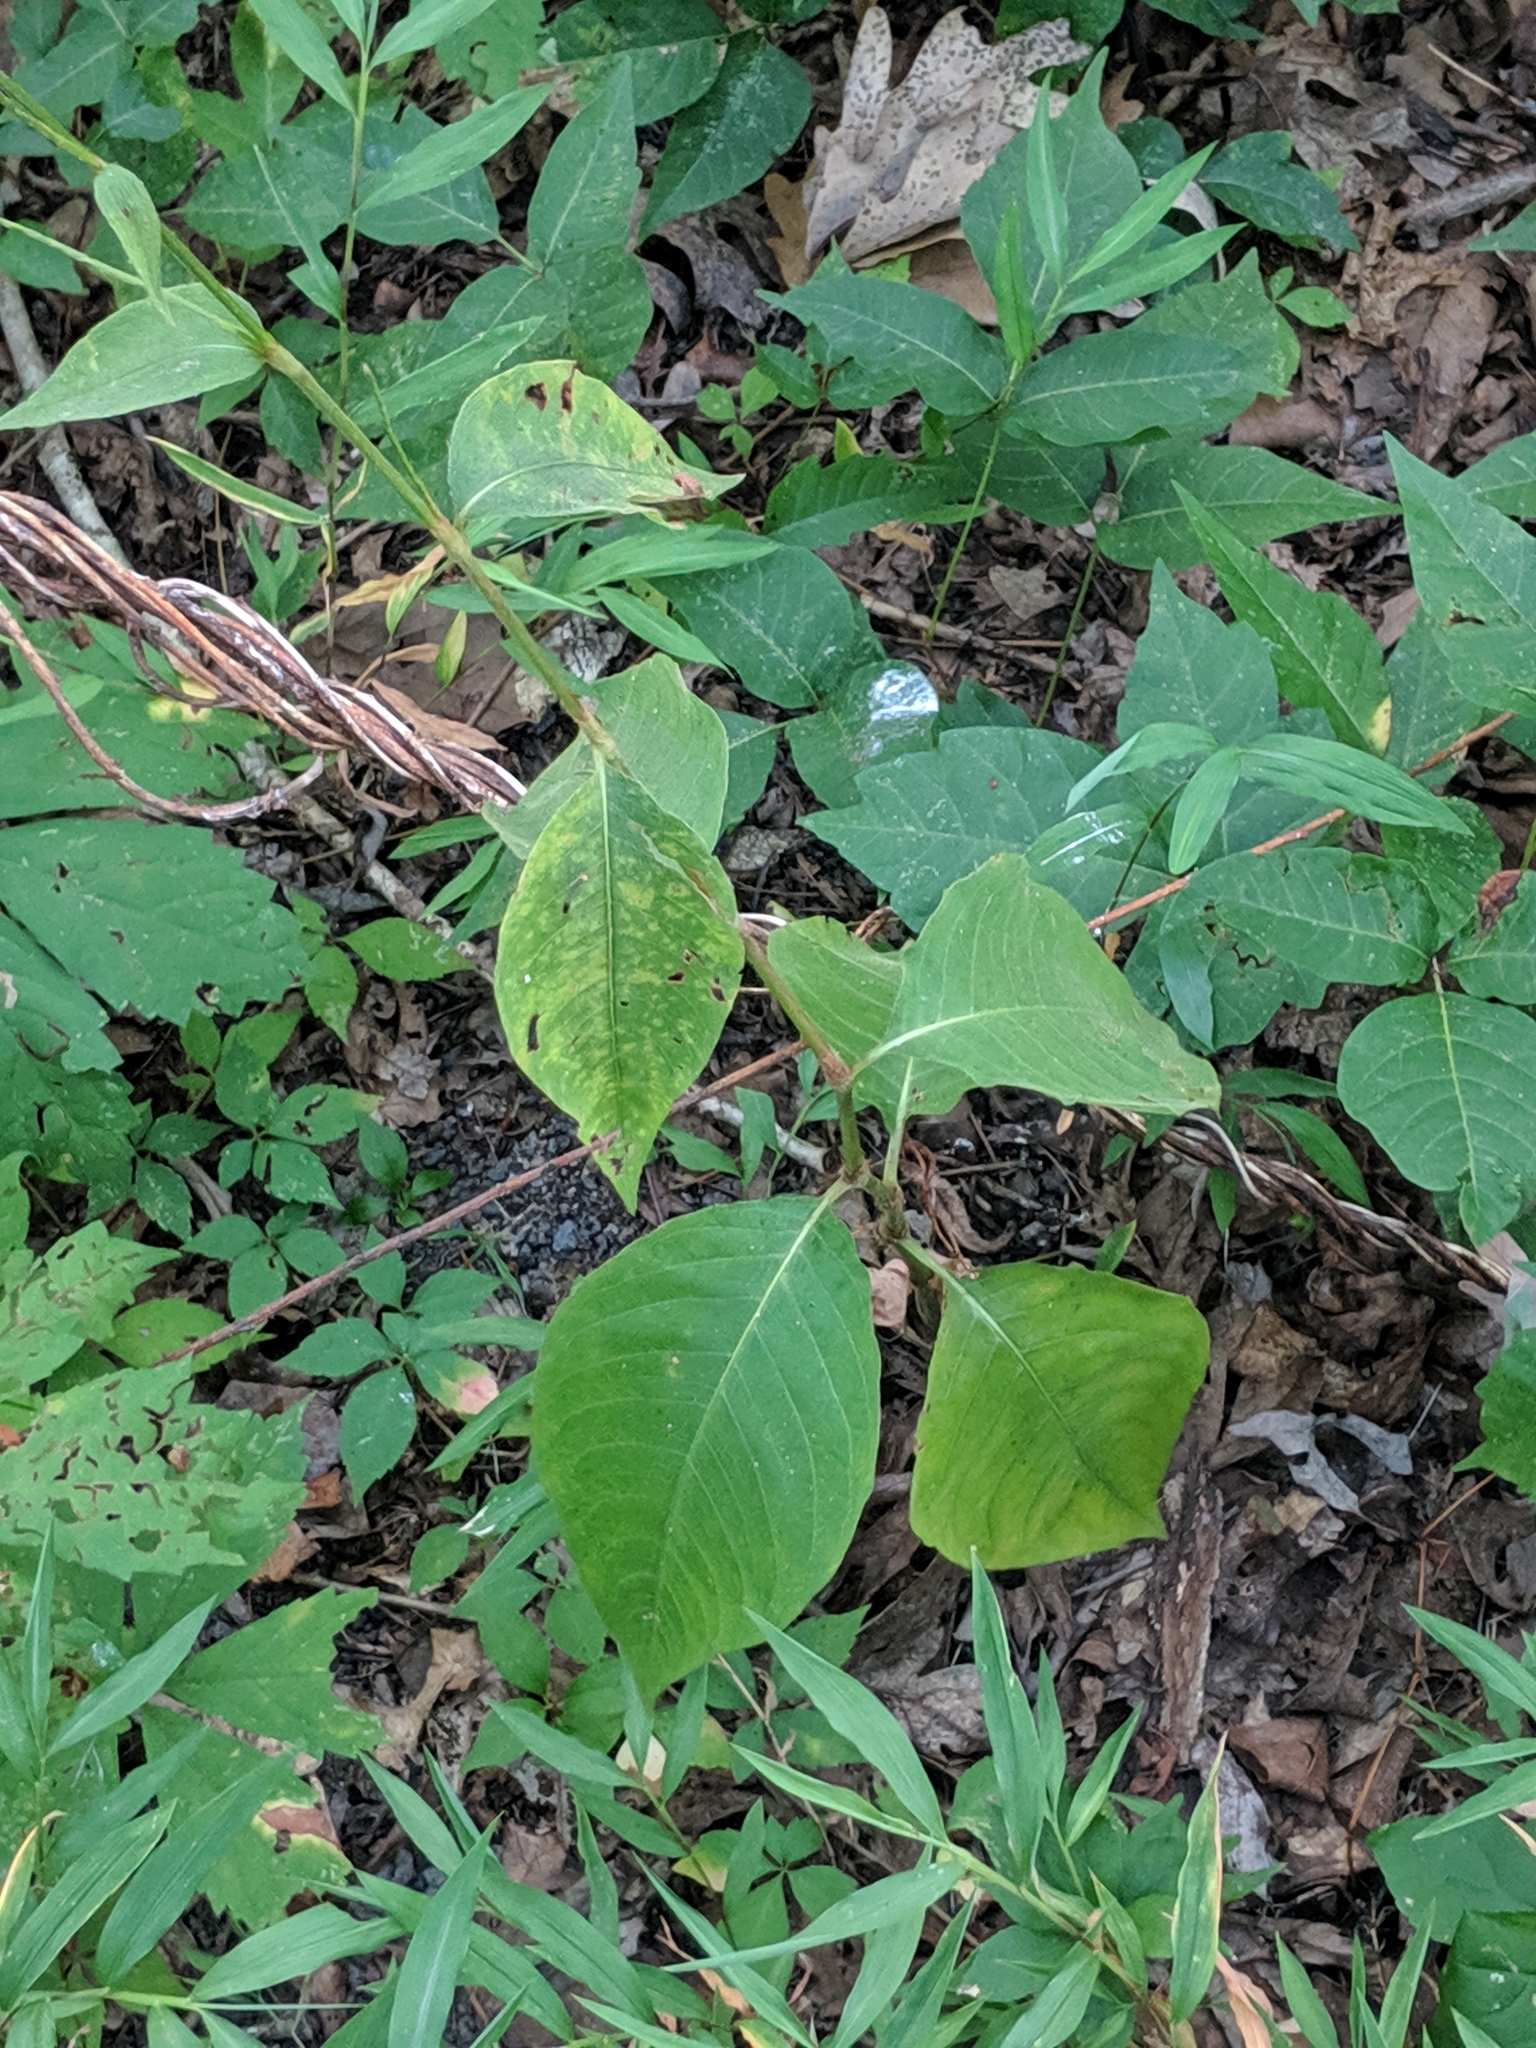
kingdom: Plantae
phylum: Tracheophyta
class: Magnoliopsida
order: Caryophyllales
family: Polygonaceae
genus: Persicaria
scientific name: Persicaria virginiana
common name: Jumpseed
